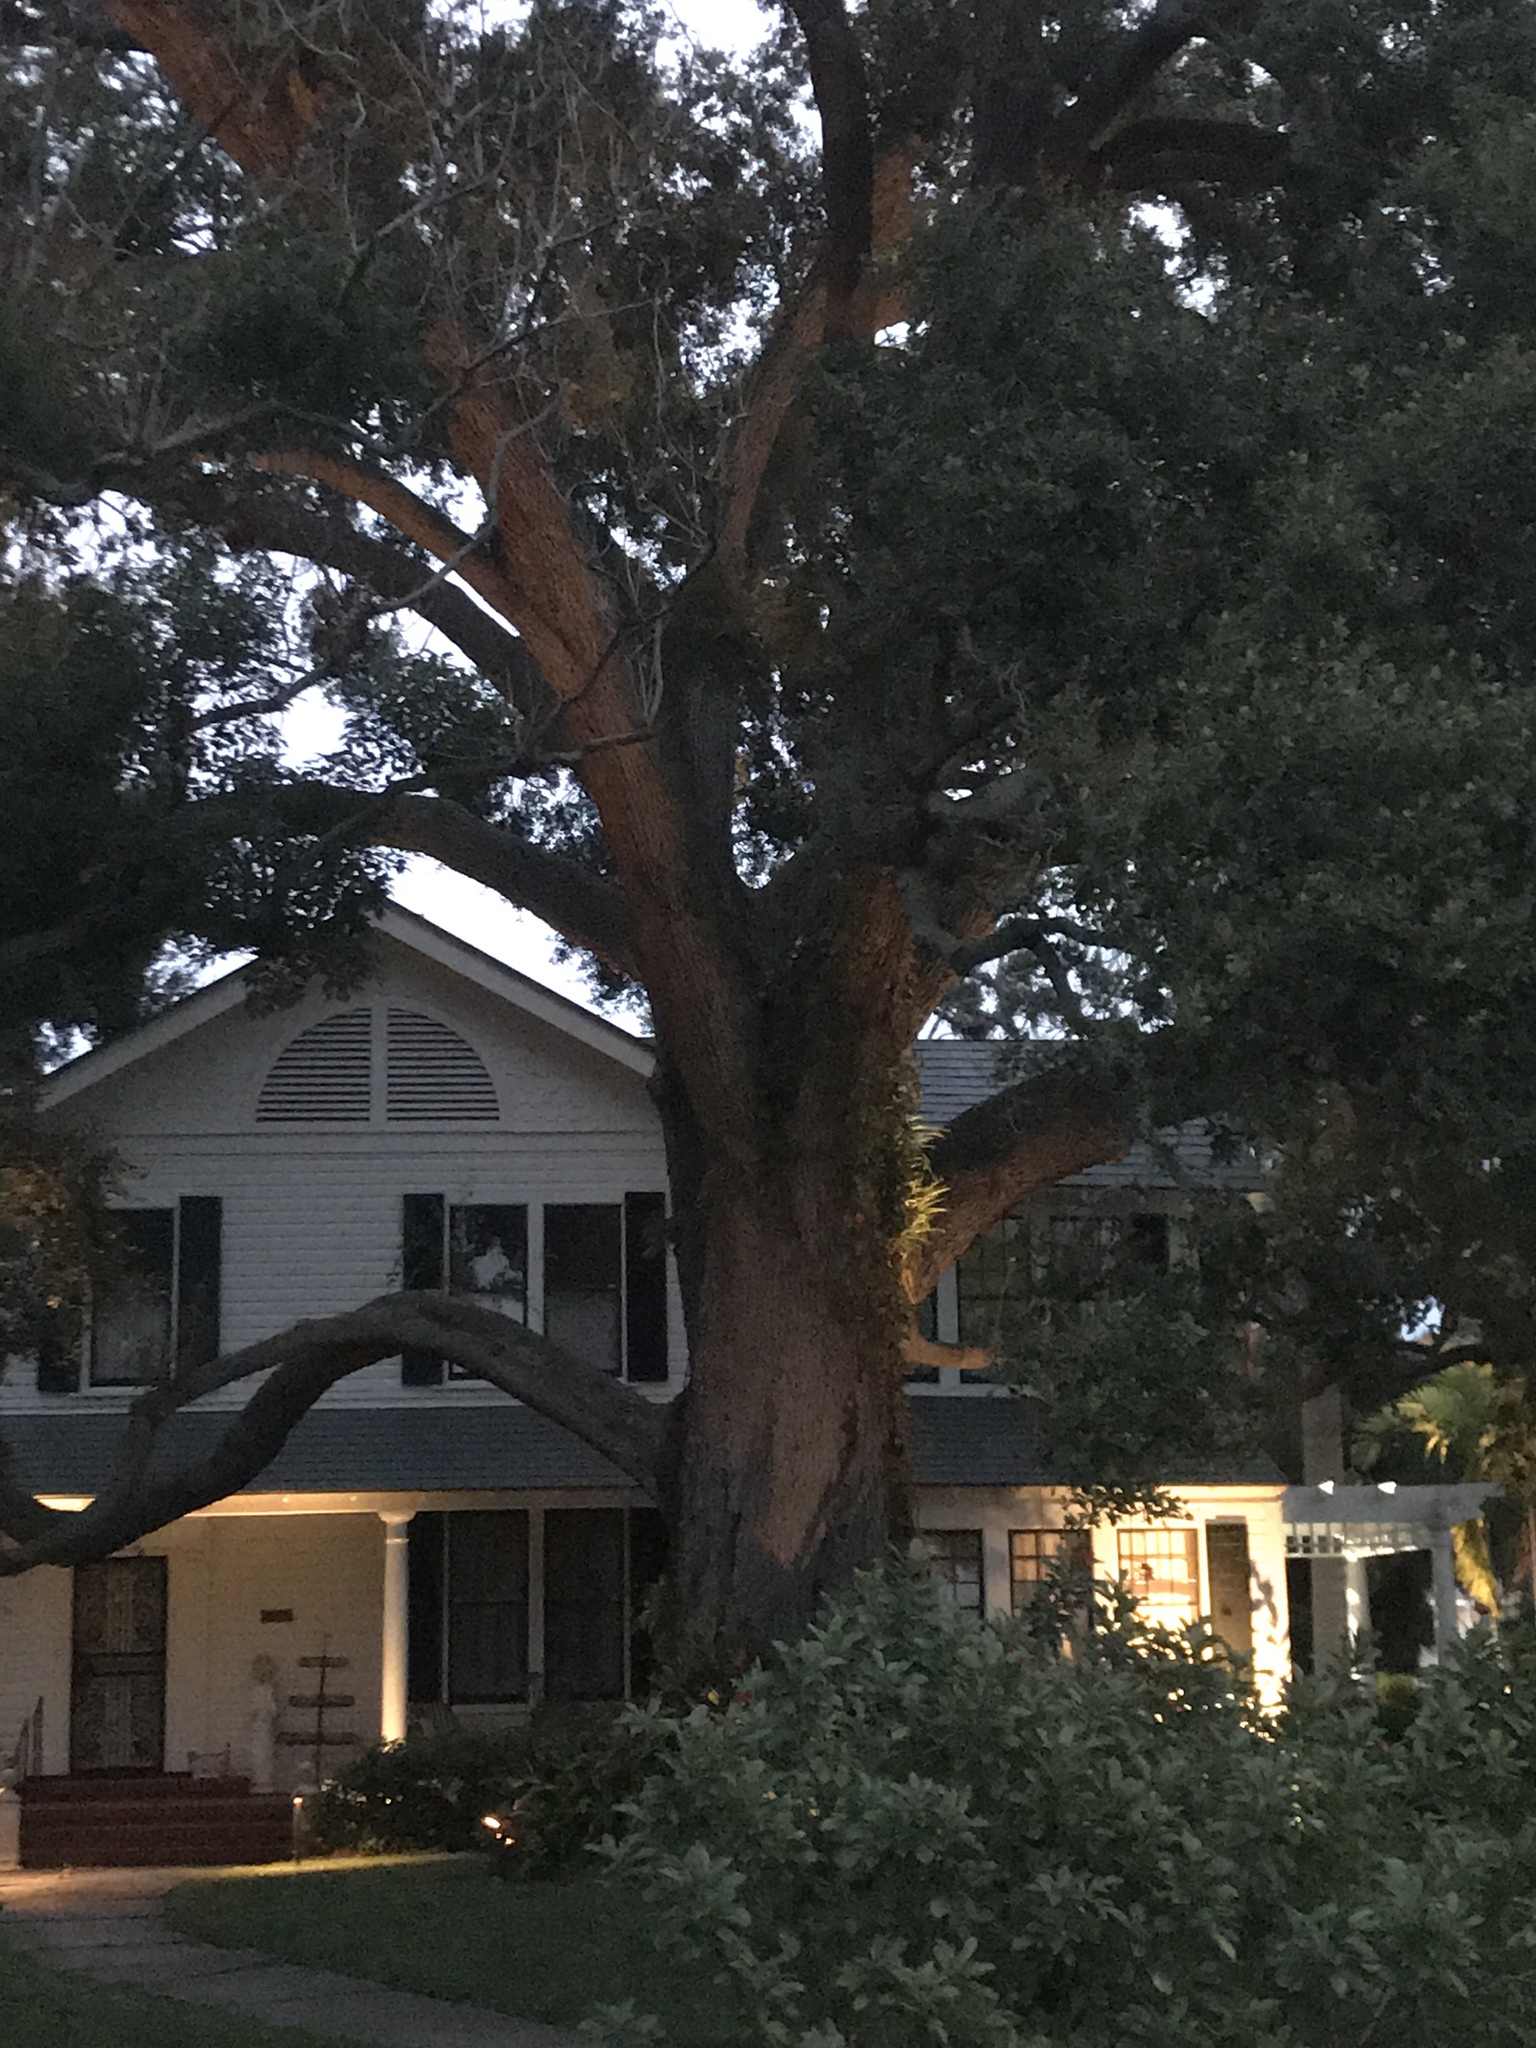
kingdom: Plantae
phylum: Tracheophyta
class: Magnoliopsida
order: Fagales
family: Fagaceae
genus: Quercus
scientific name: Quercus virginiana
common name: Southern live oak
